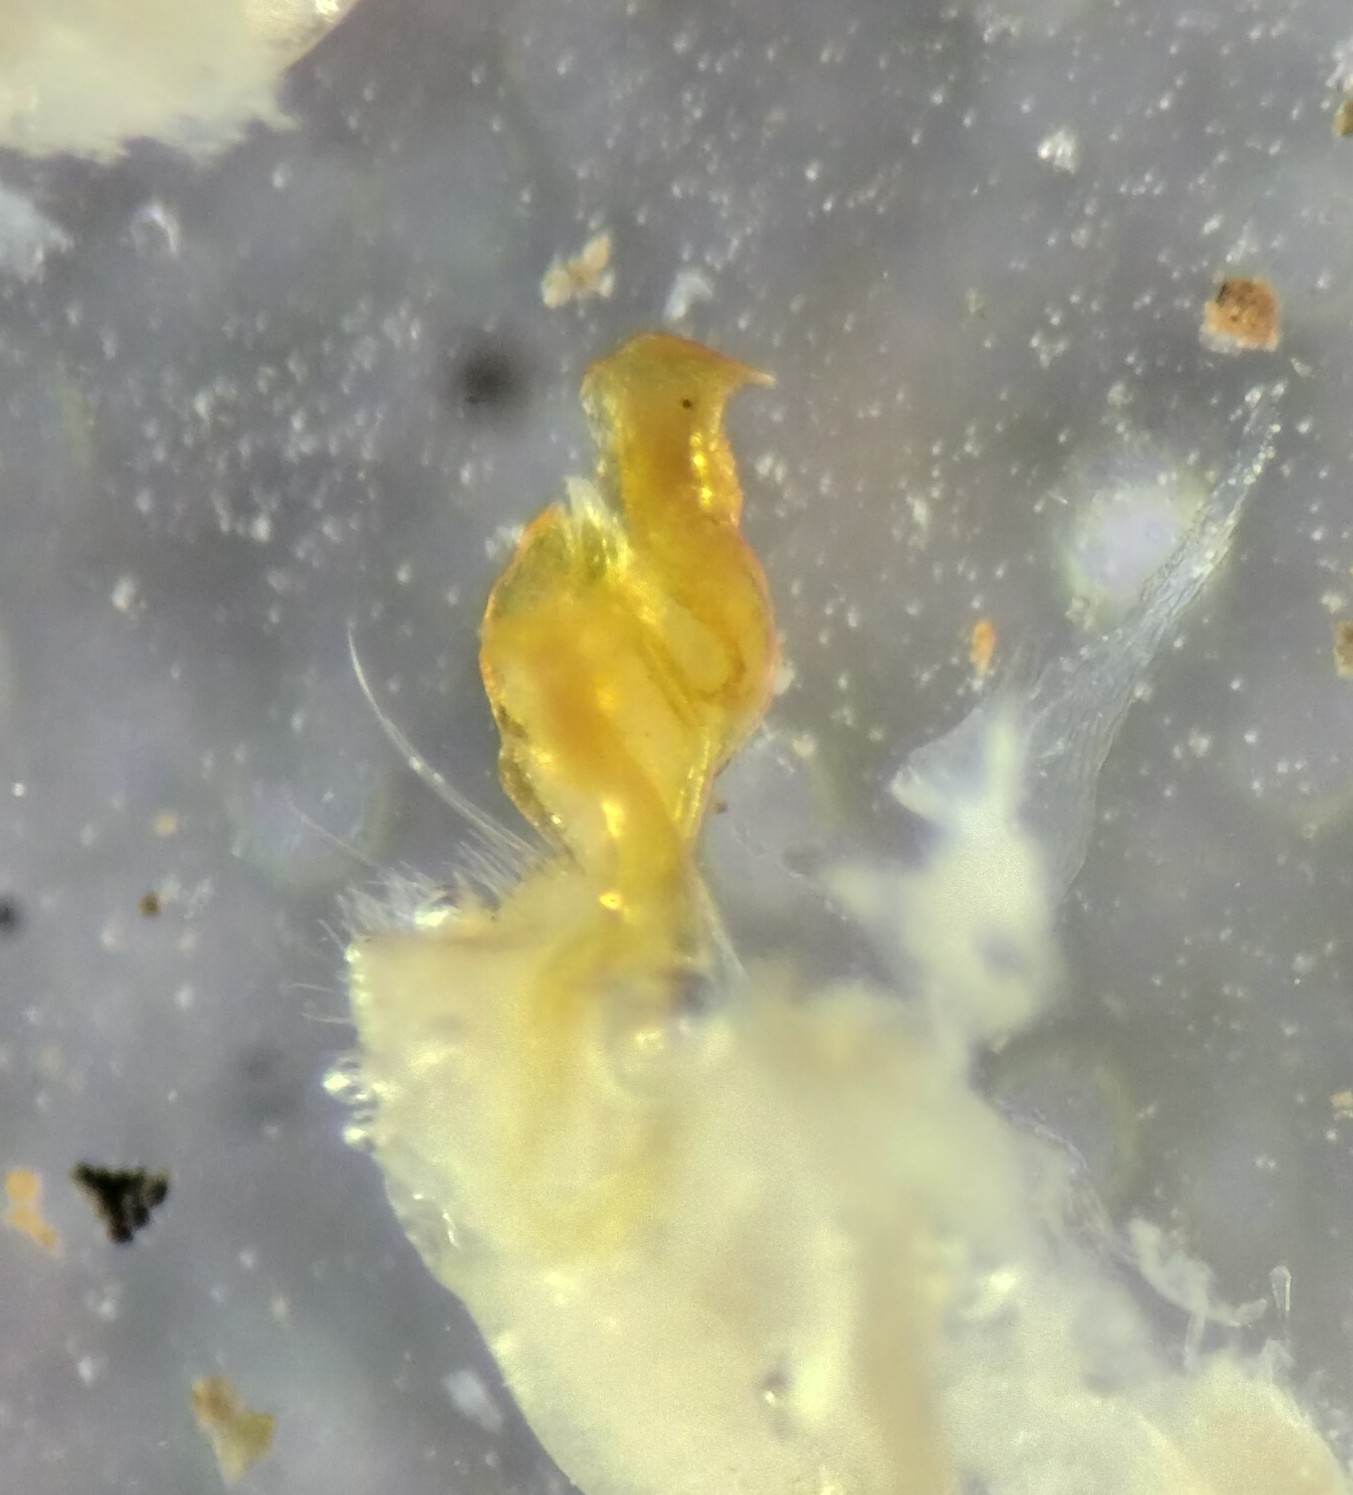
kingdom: Animalia
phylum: Arthropoda
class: Diplopoda
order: Polydesmida
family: Xystodesmidae
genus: Caralinda
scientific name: Caralinda beatrix
